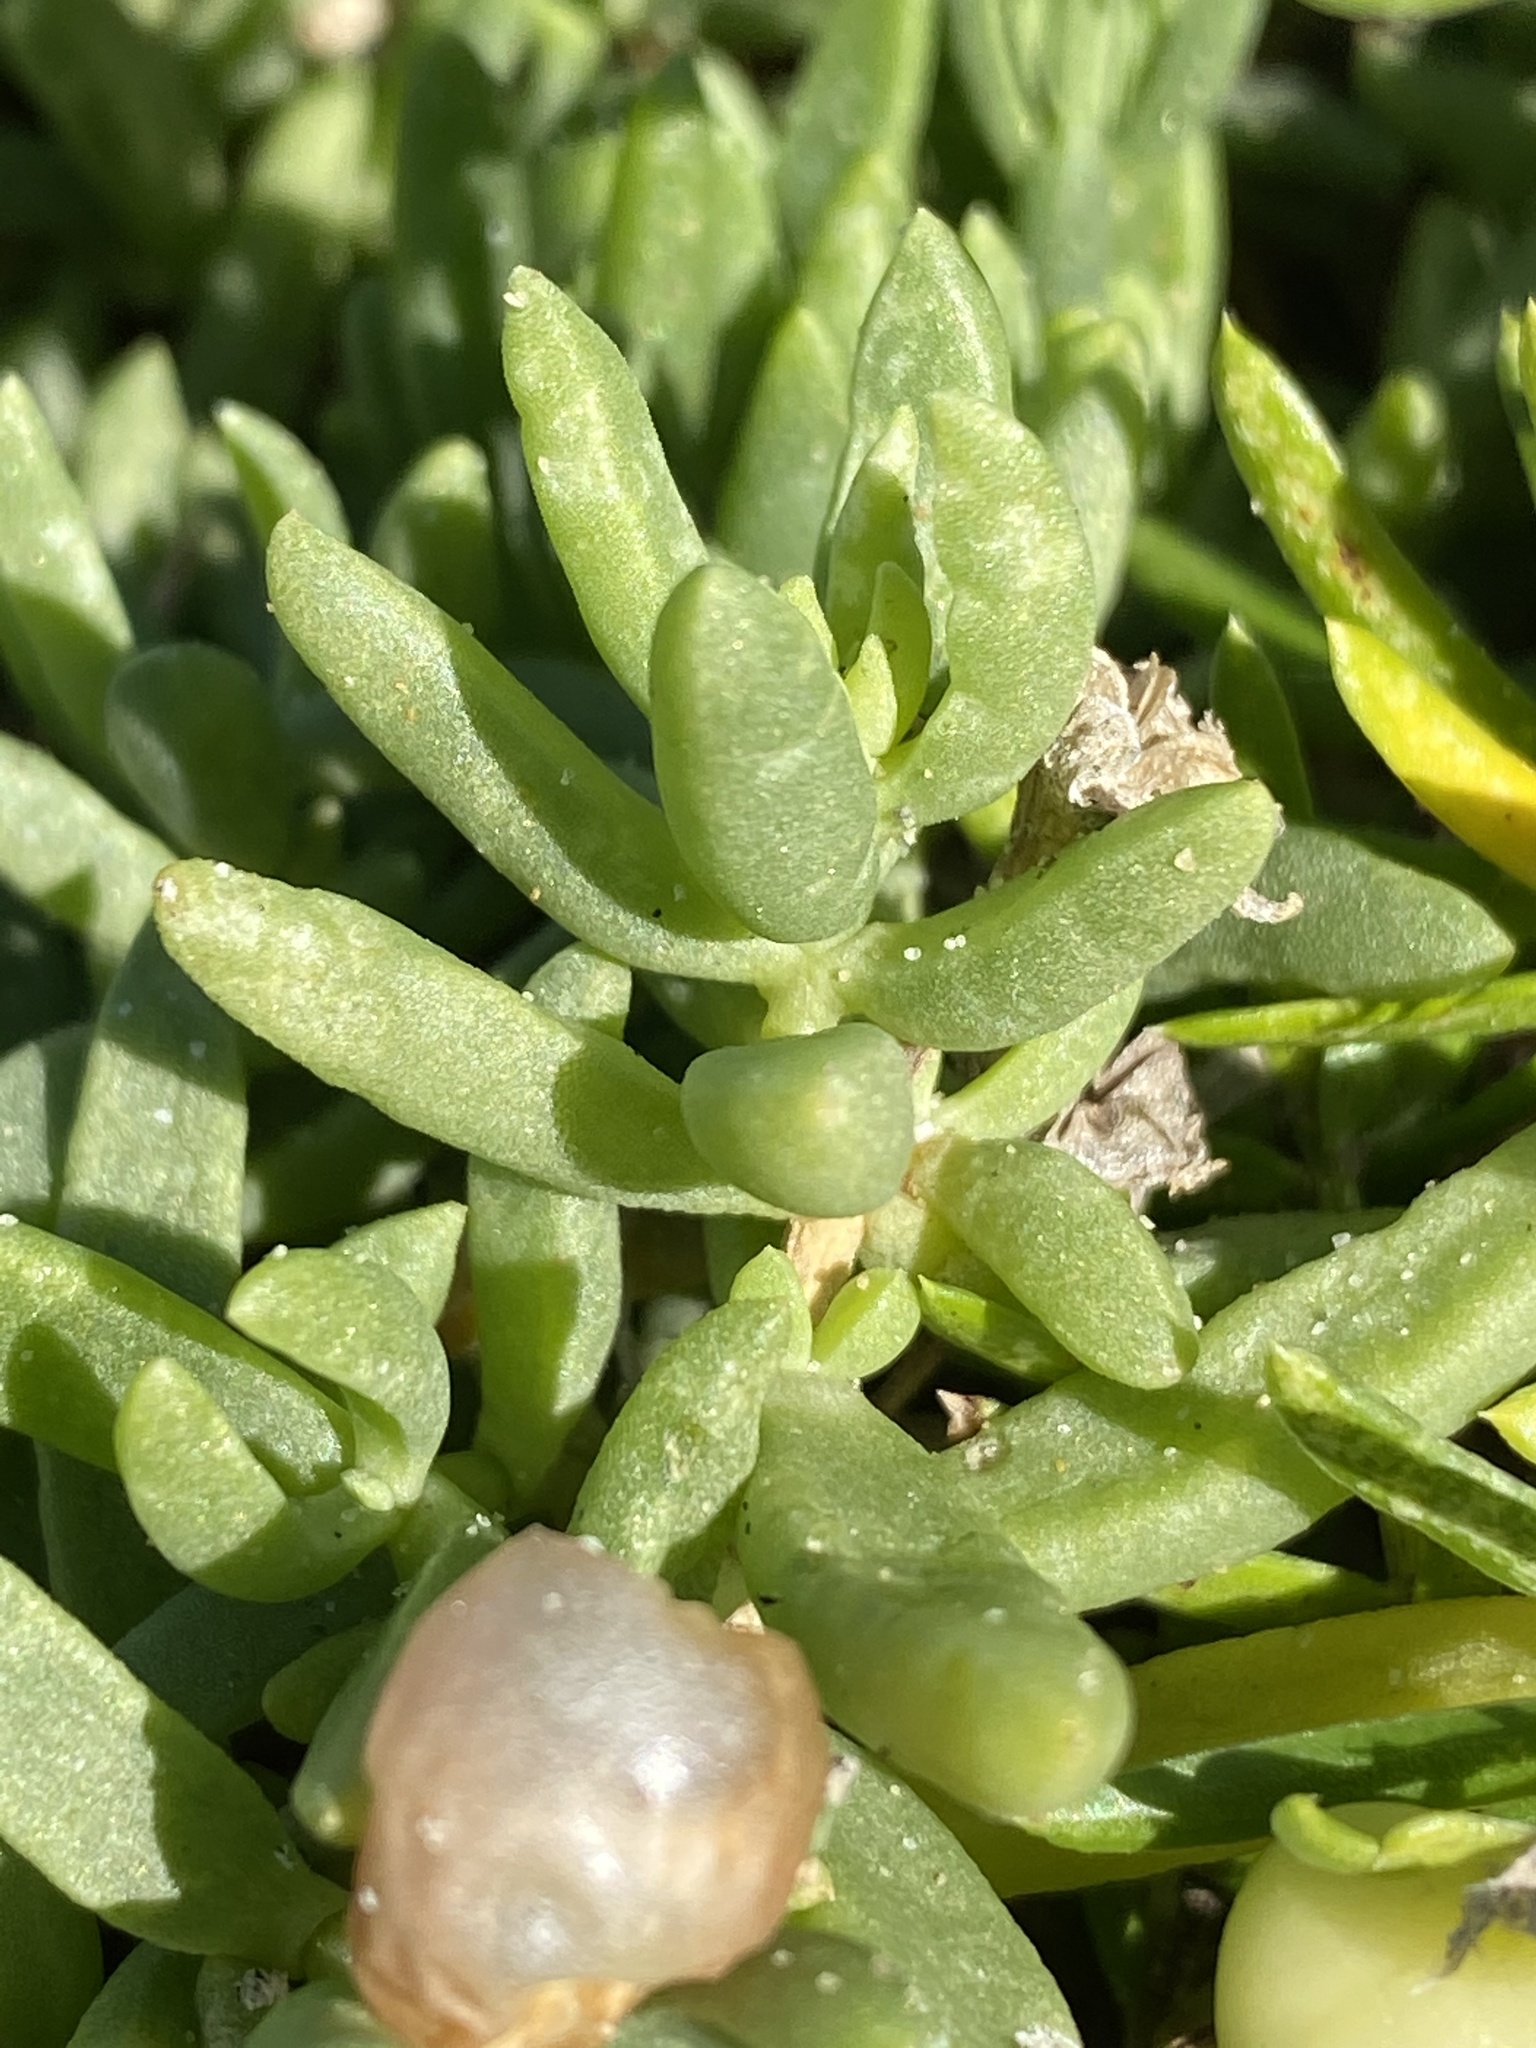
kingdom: Plantae
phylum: Tracheophyta
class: Magnoliopsida
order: Caryophyllales
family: Aizoaceae
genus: Delosperma
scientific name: Delosperma caespitosum
